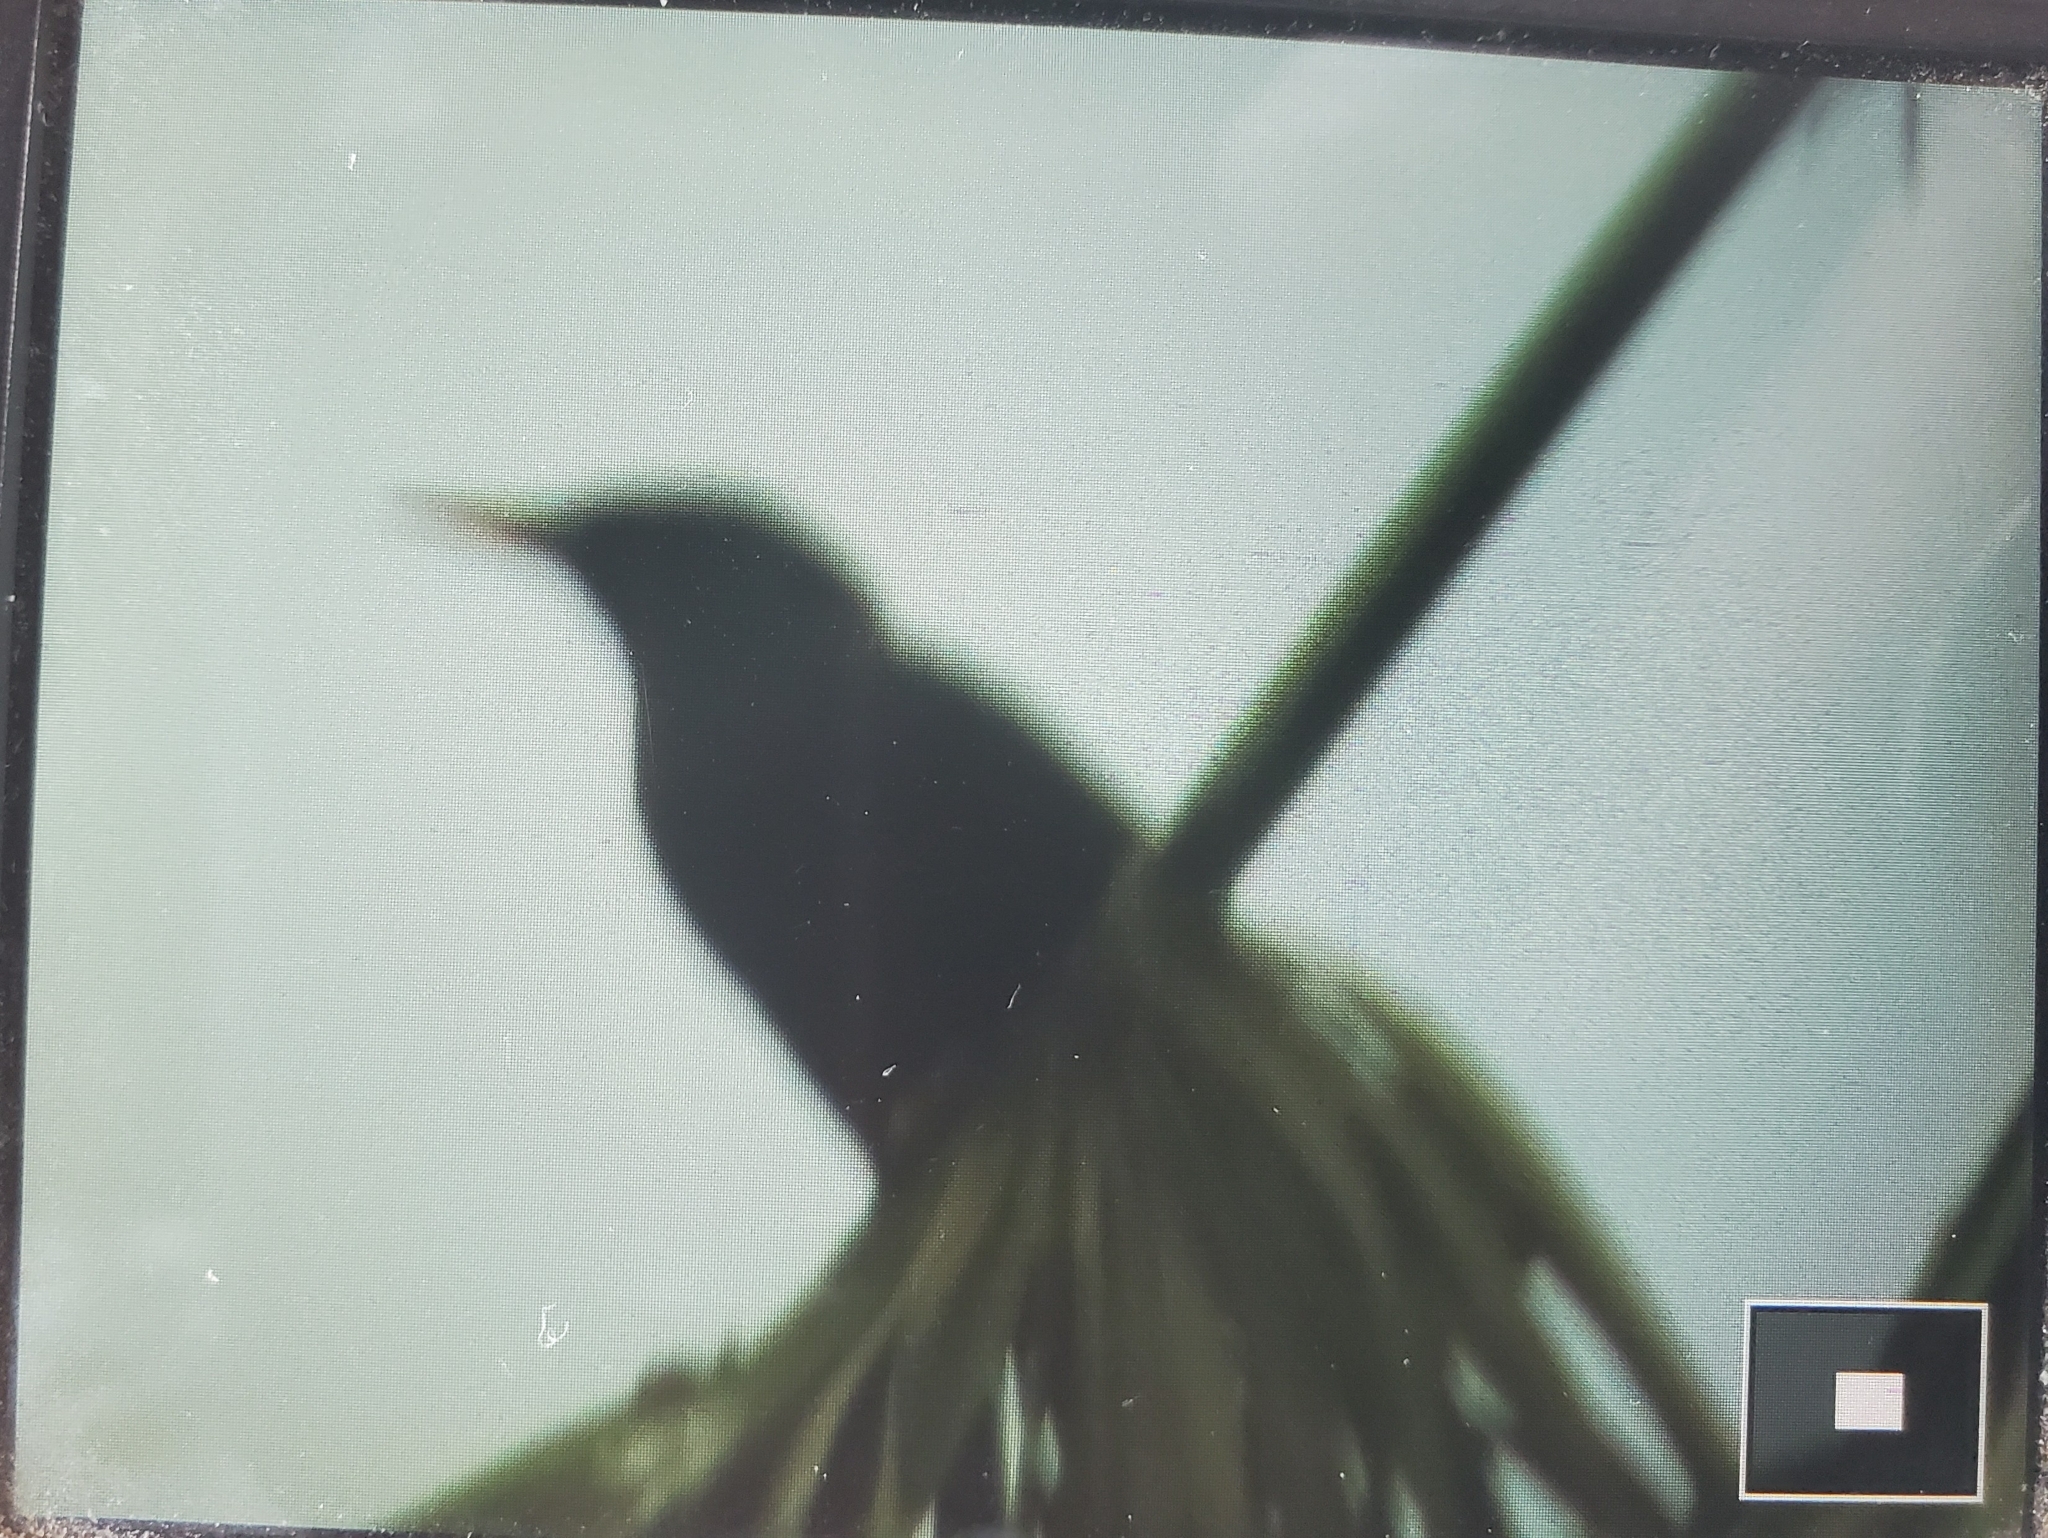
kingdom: Animalia
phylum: Chordata
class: Aves
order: Passeriformes
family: Sturnidae
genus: Sturnus
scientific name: Sturnus vulgaris
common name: Common starling
